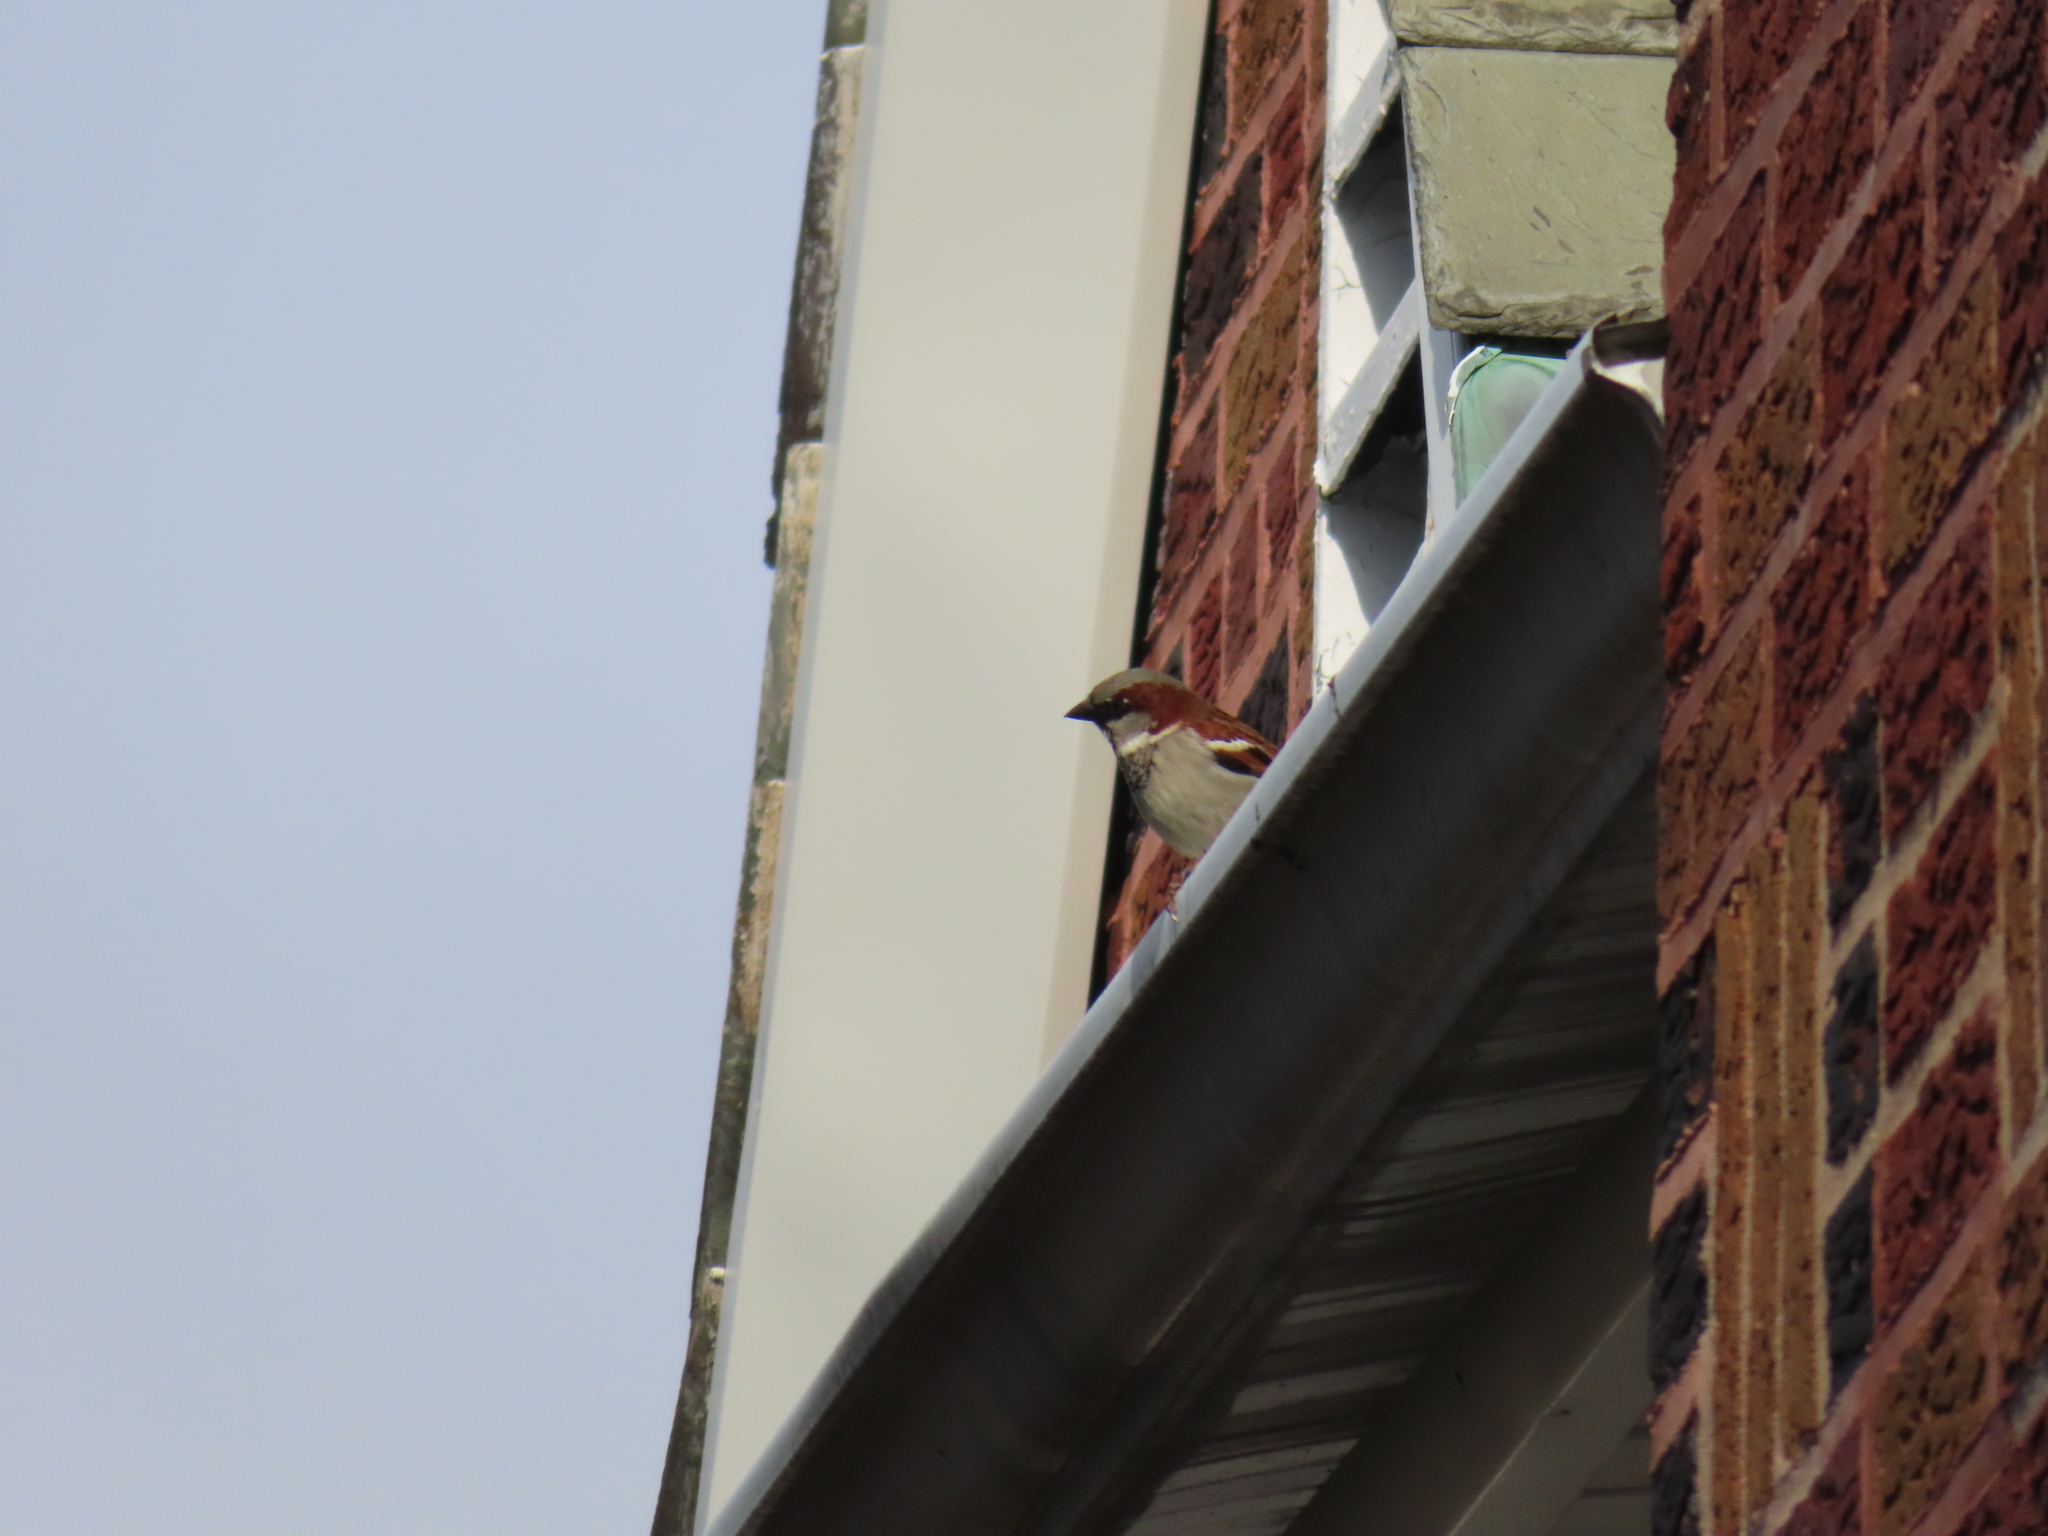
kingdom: Animalia
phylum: Chordata
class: Aves
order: Passeriformes
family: Passeridae
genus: Passer
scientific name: Passer domesticus
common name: House sparrow
